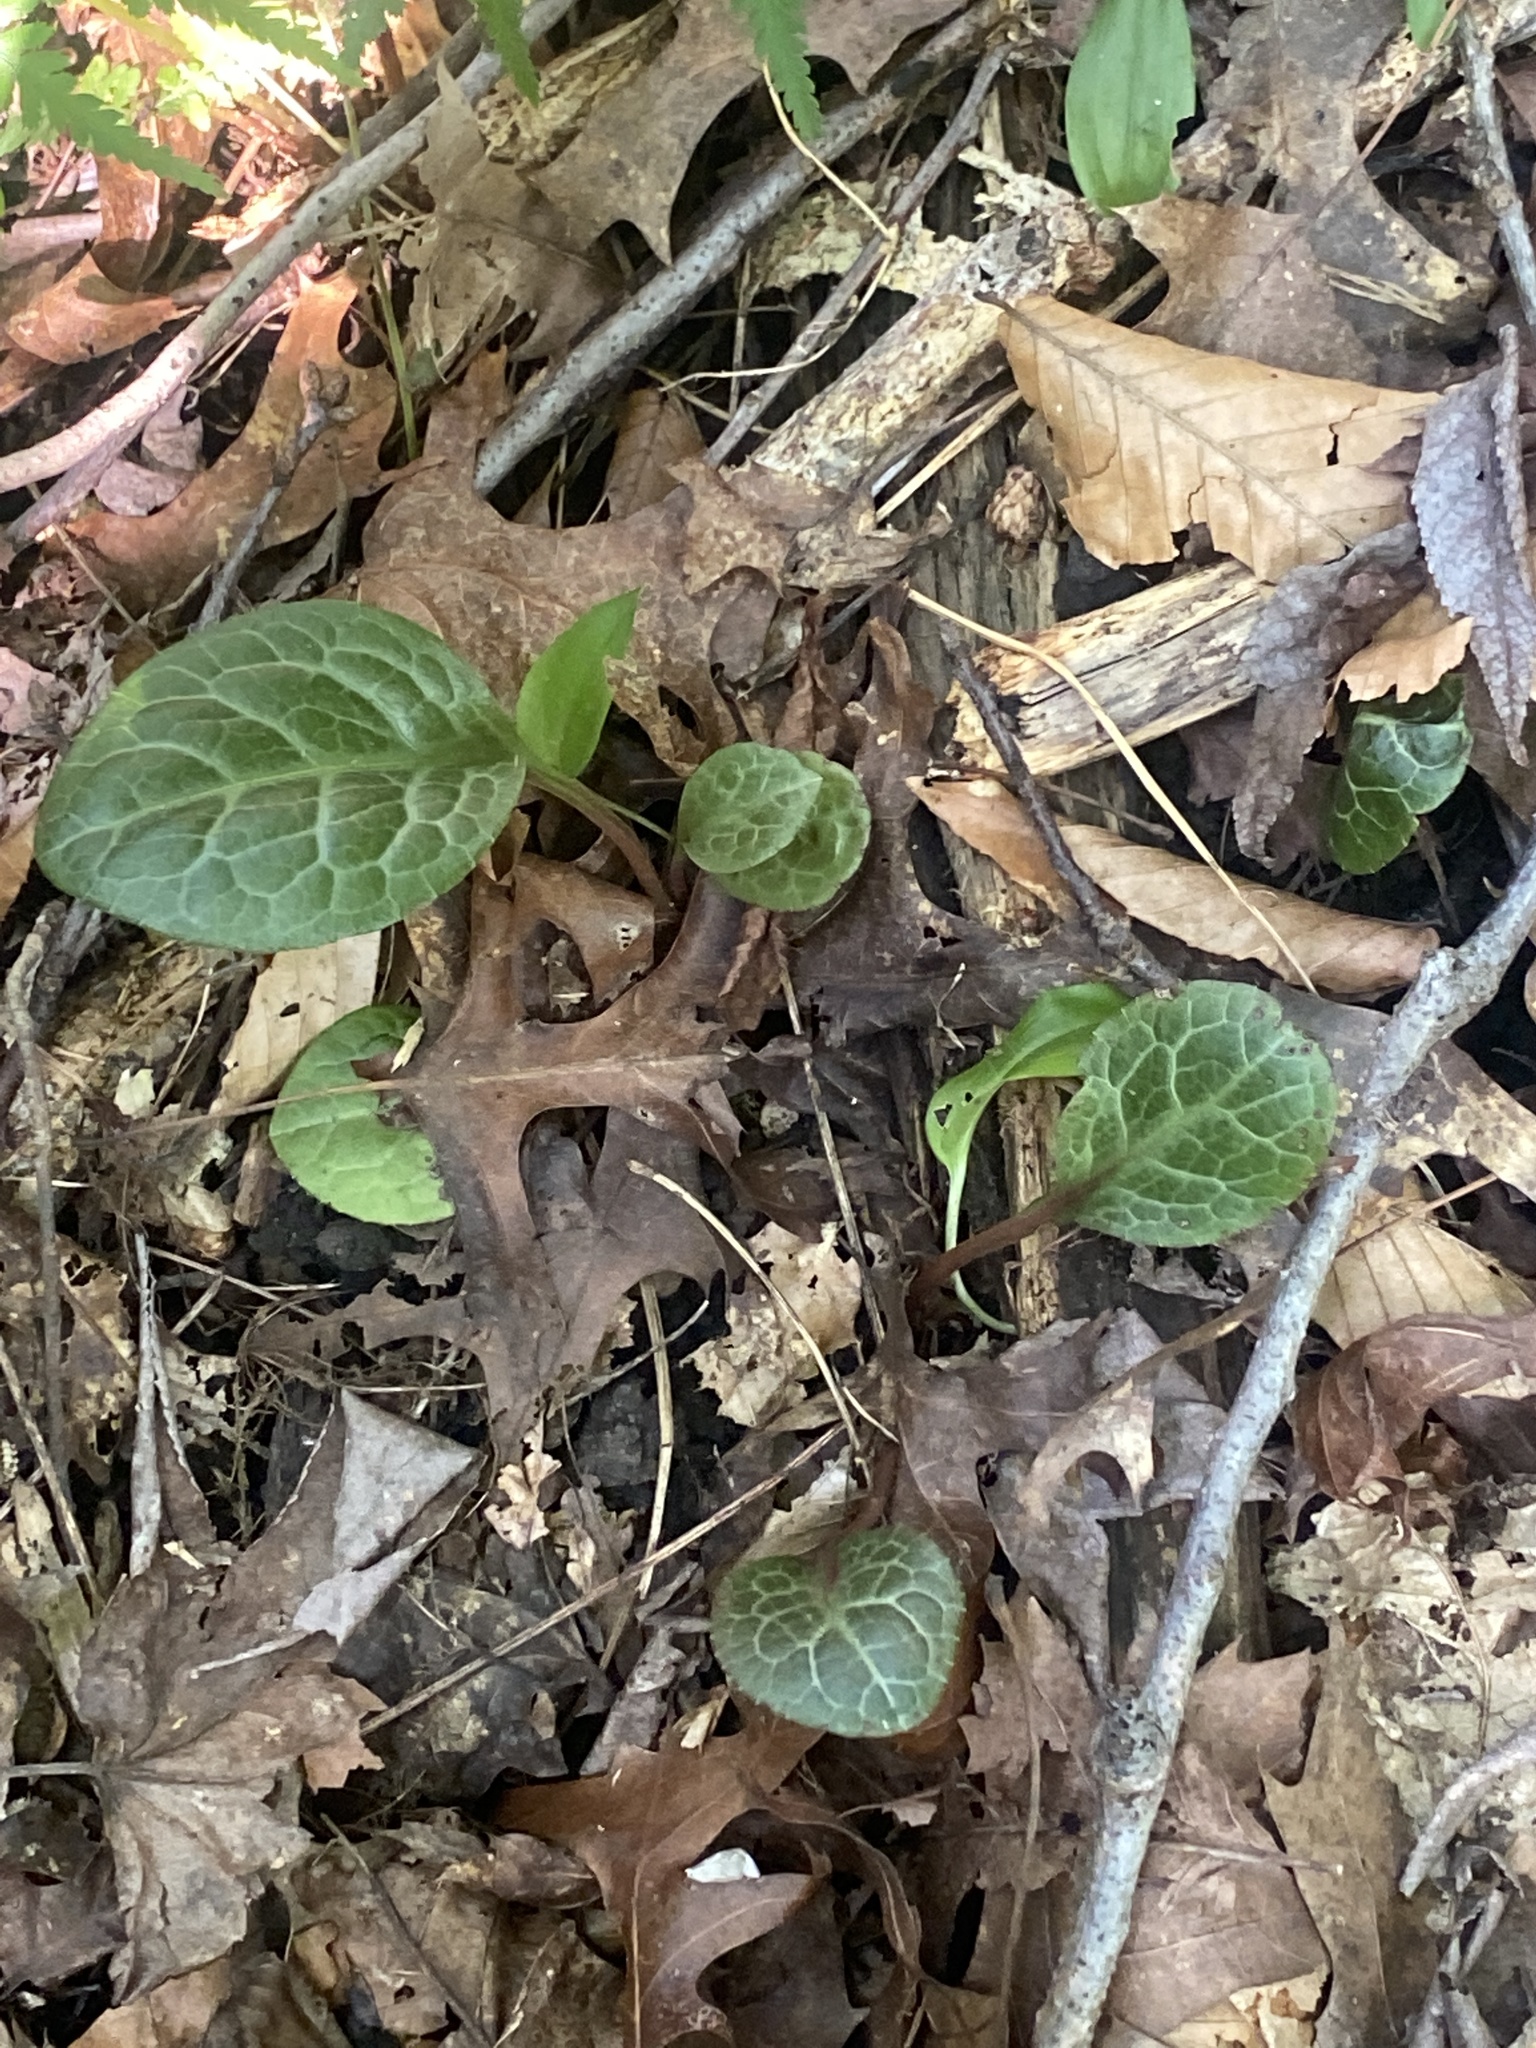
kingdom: Plantae
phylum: Tracheophyta
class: Magnoliopsida
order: Ericales
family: Ericaceae
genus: Pyrola
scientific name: Pyrola americana
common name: American wintergreen
